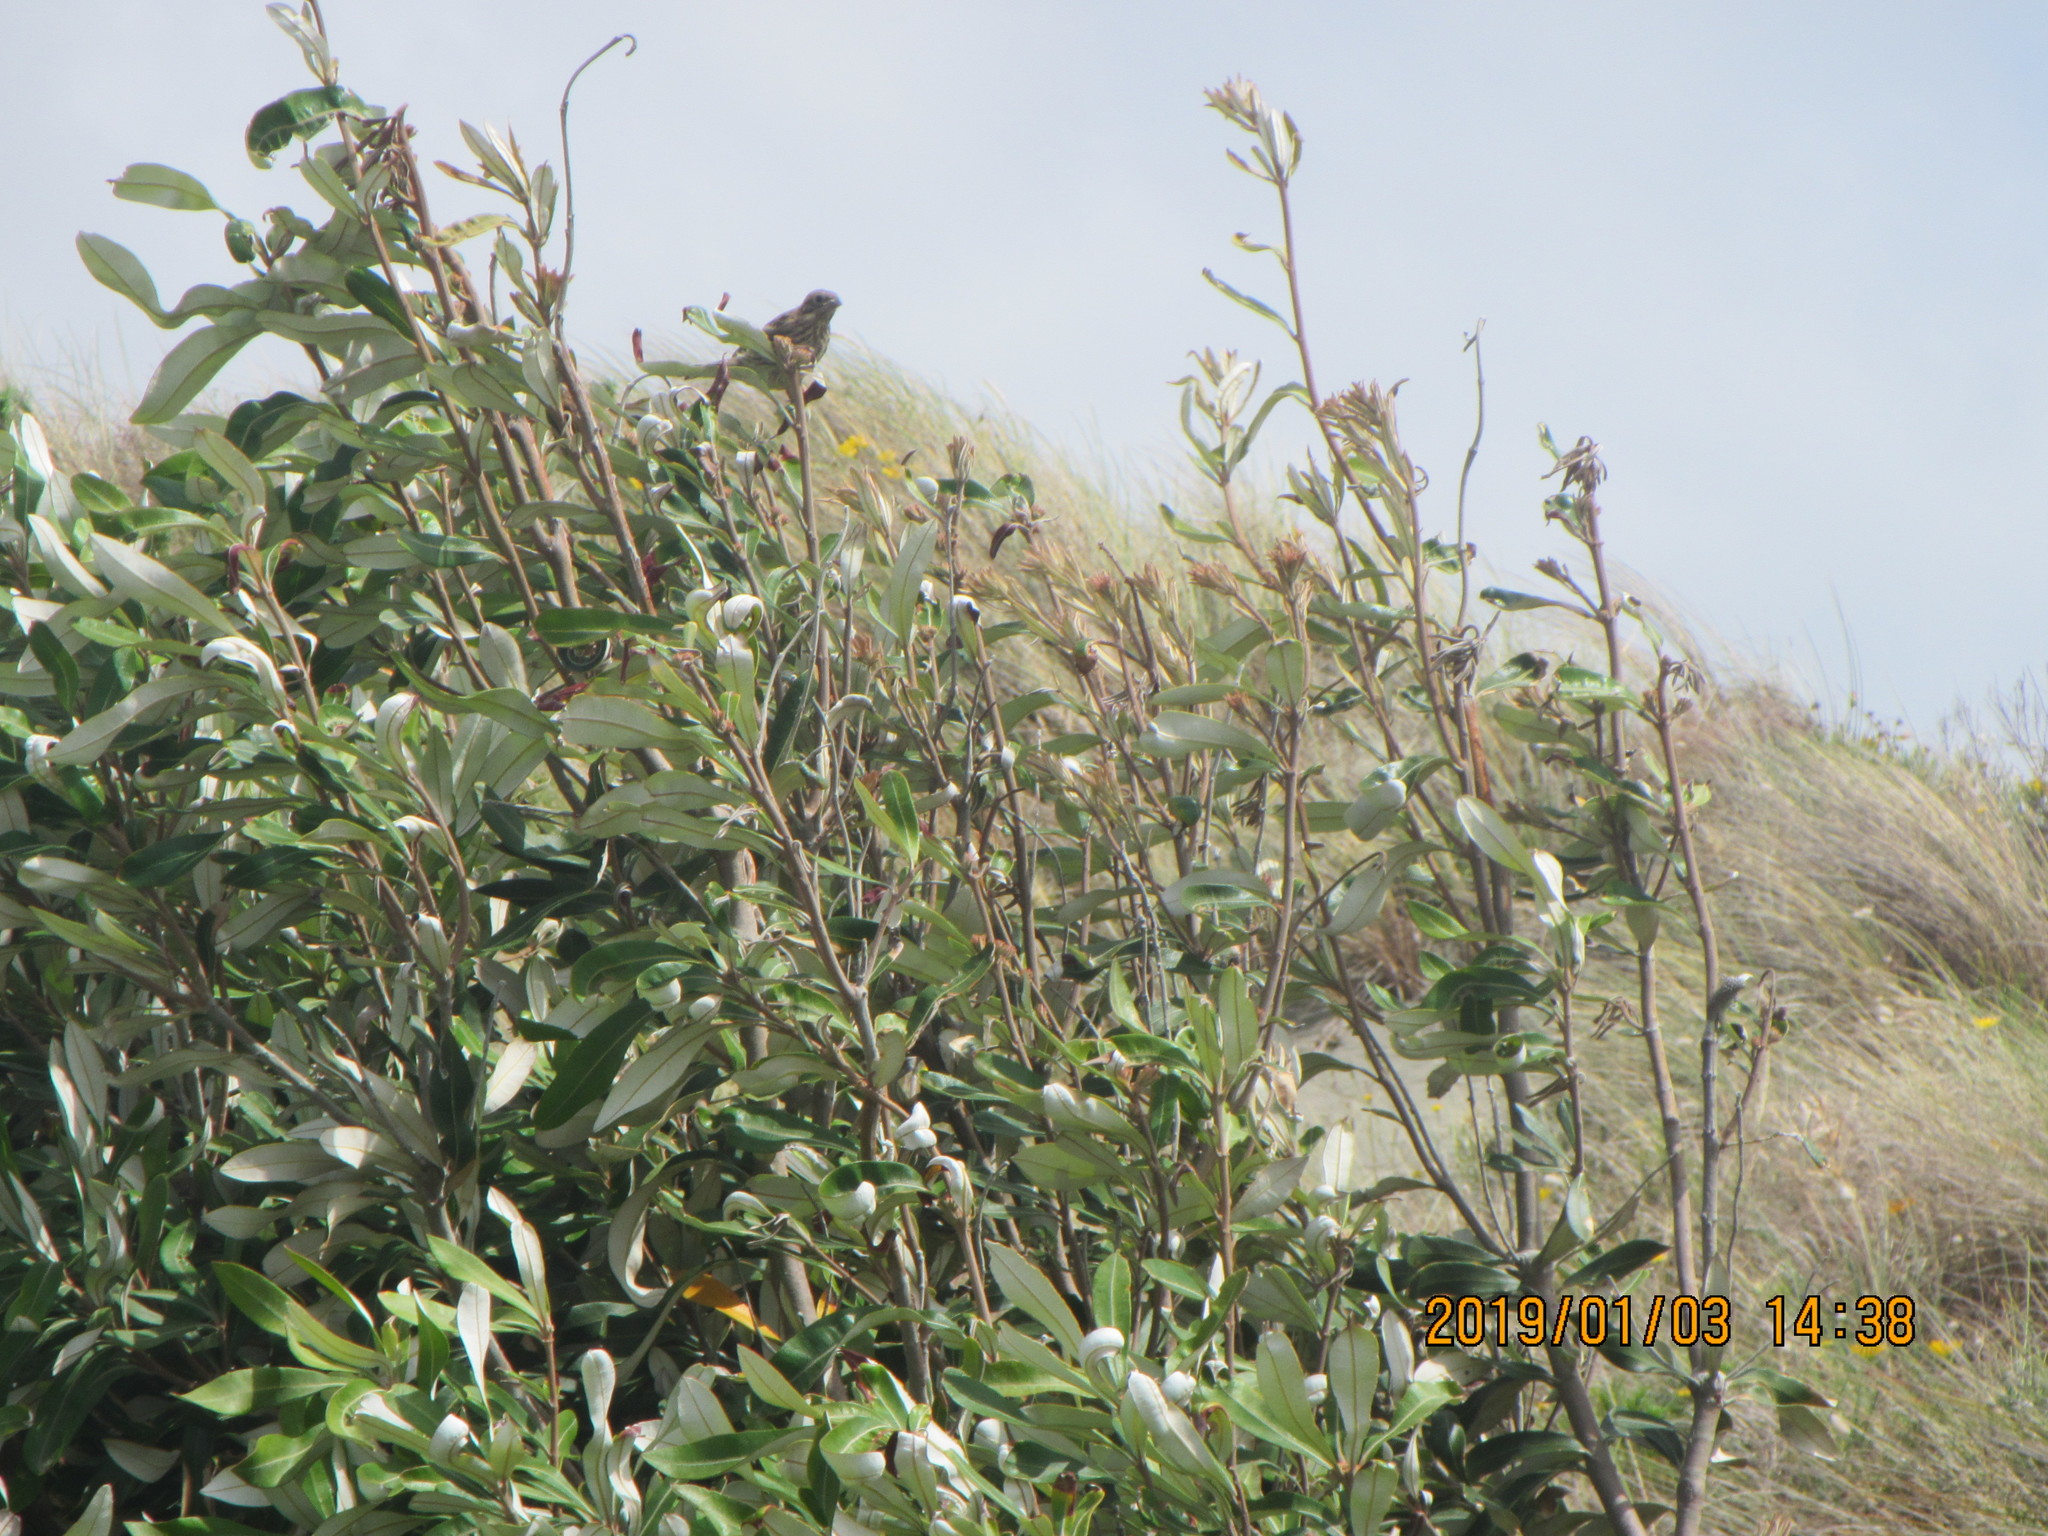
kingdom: Animalia
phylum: Chordata
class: Aves
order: Passeriformes
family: Emberizidae
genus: Emberiza
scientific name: Emberiza citrinella
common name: Yellowhammer
